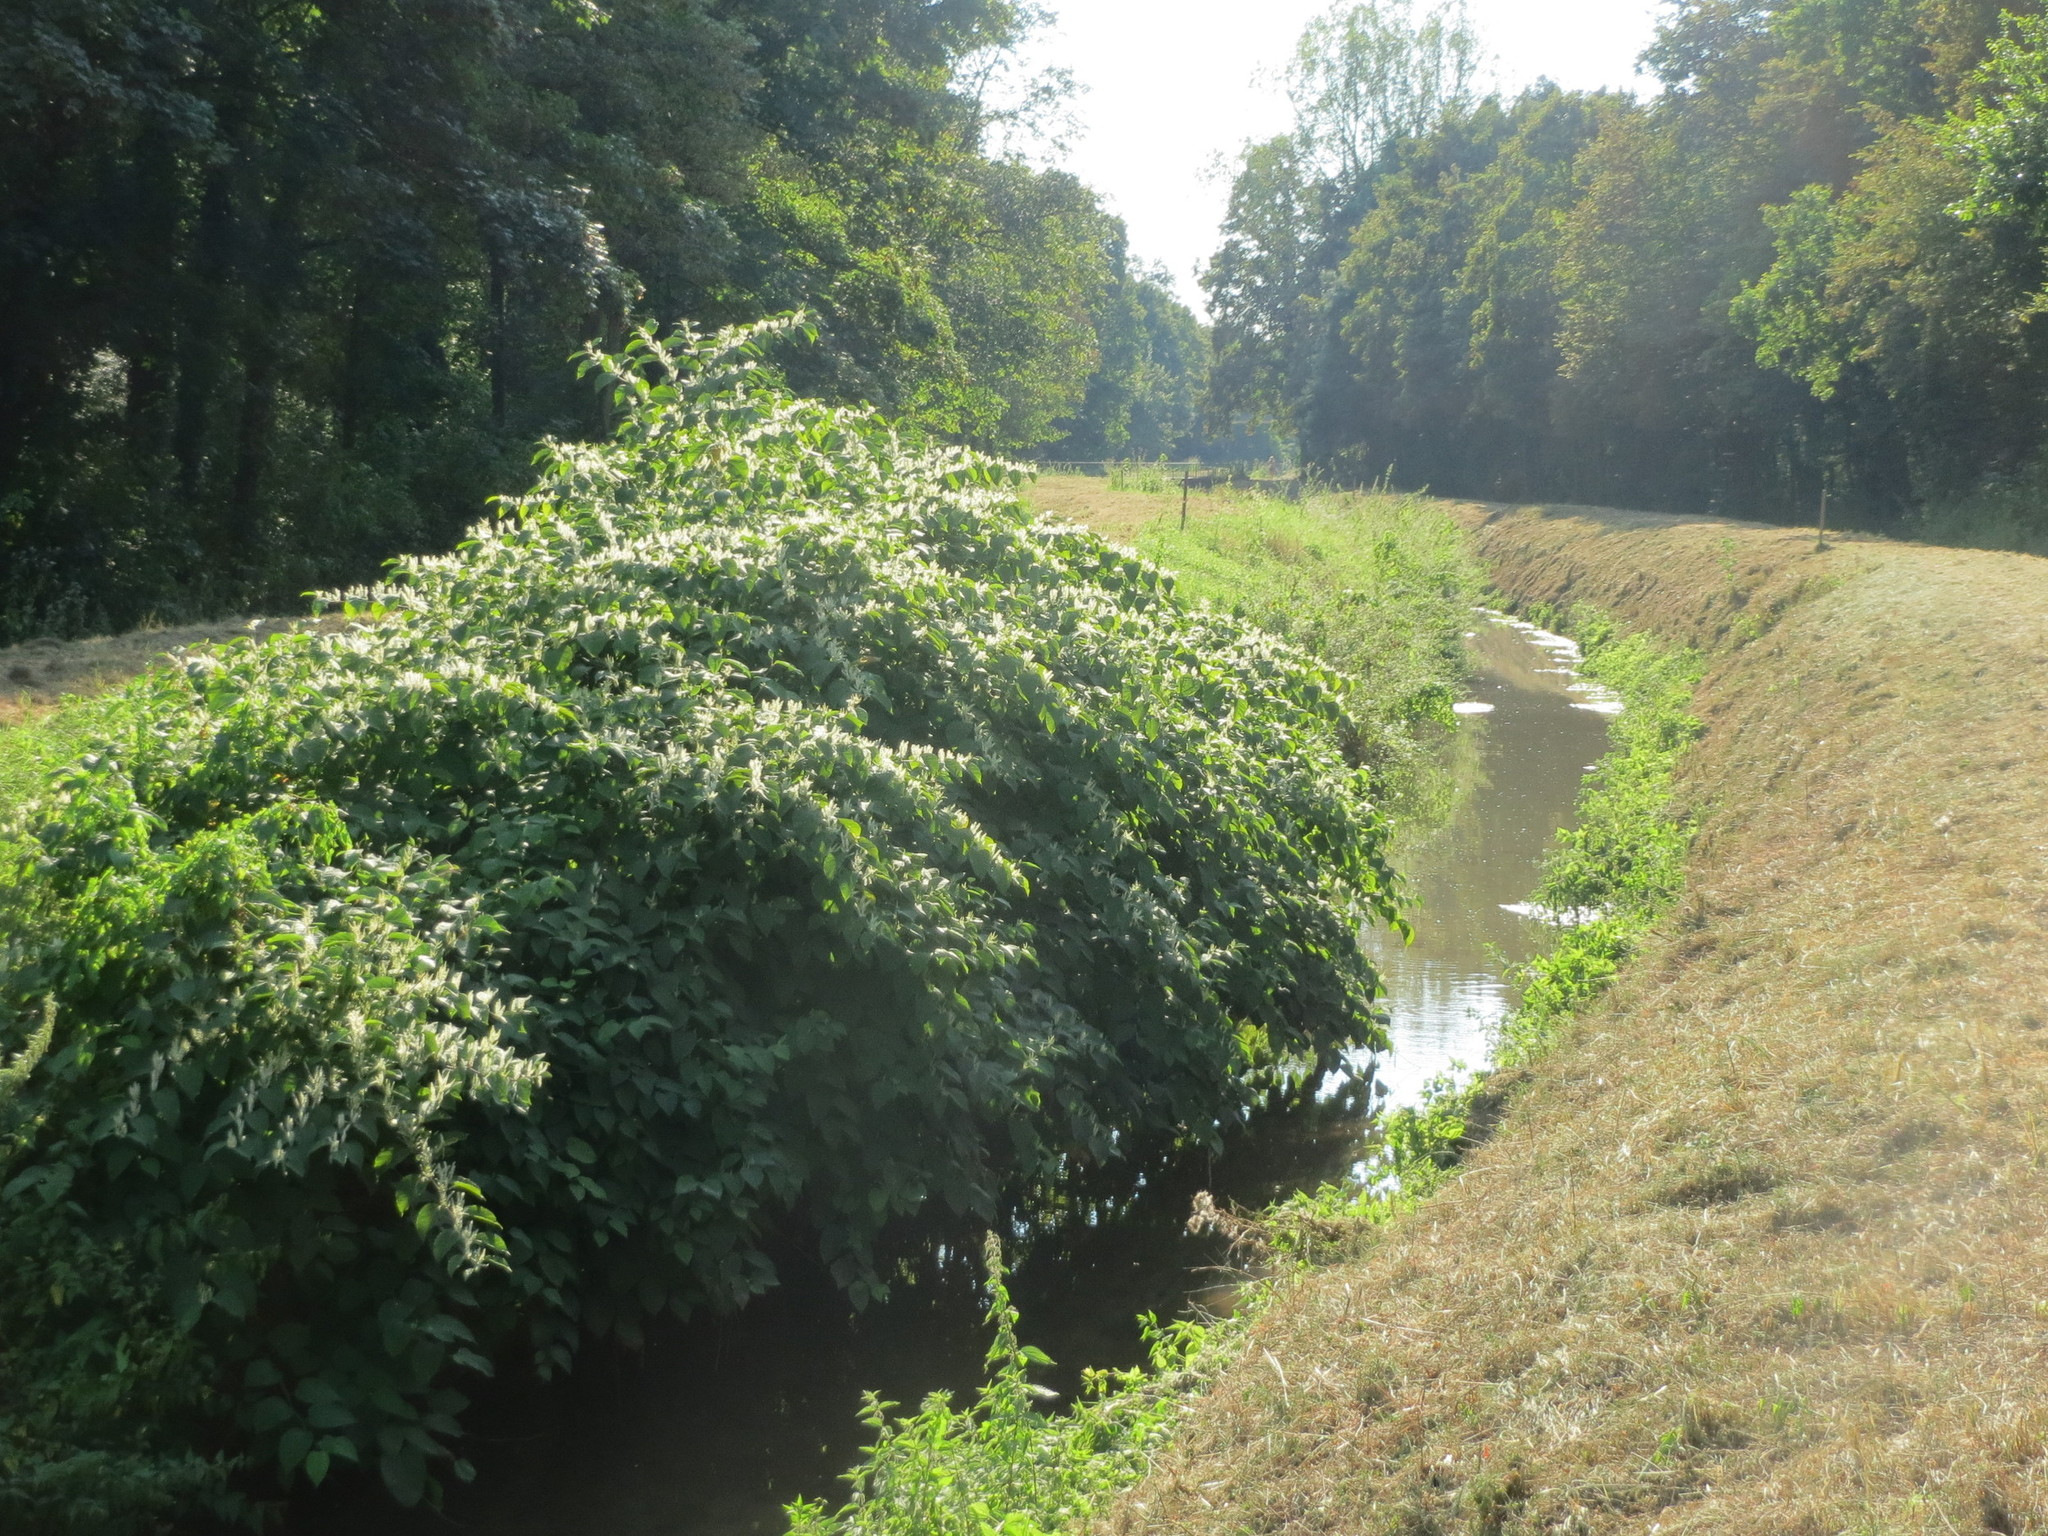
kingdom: Plantae
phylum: Tracheophyta
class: Magnoliopsida
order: Caryophyllales
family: Polygonaceae
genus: Reynoutria
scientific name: Reynoutria japonica
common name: Japanese knotweed
